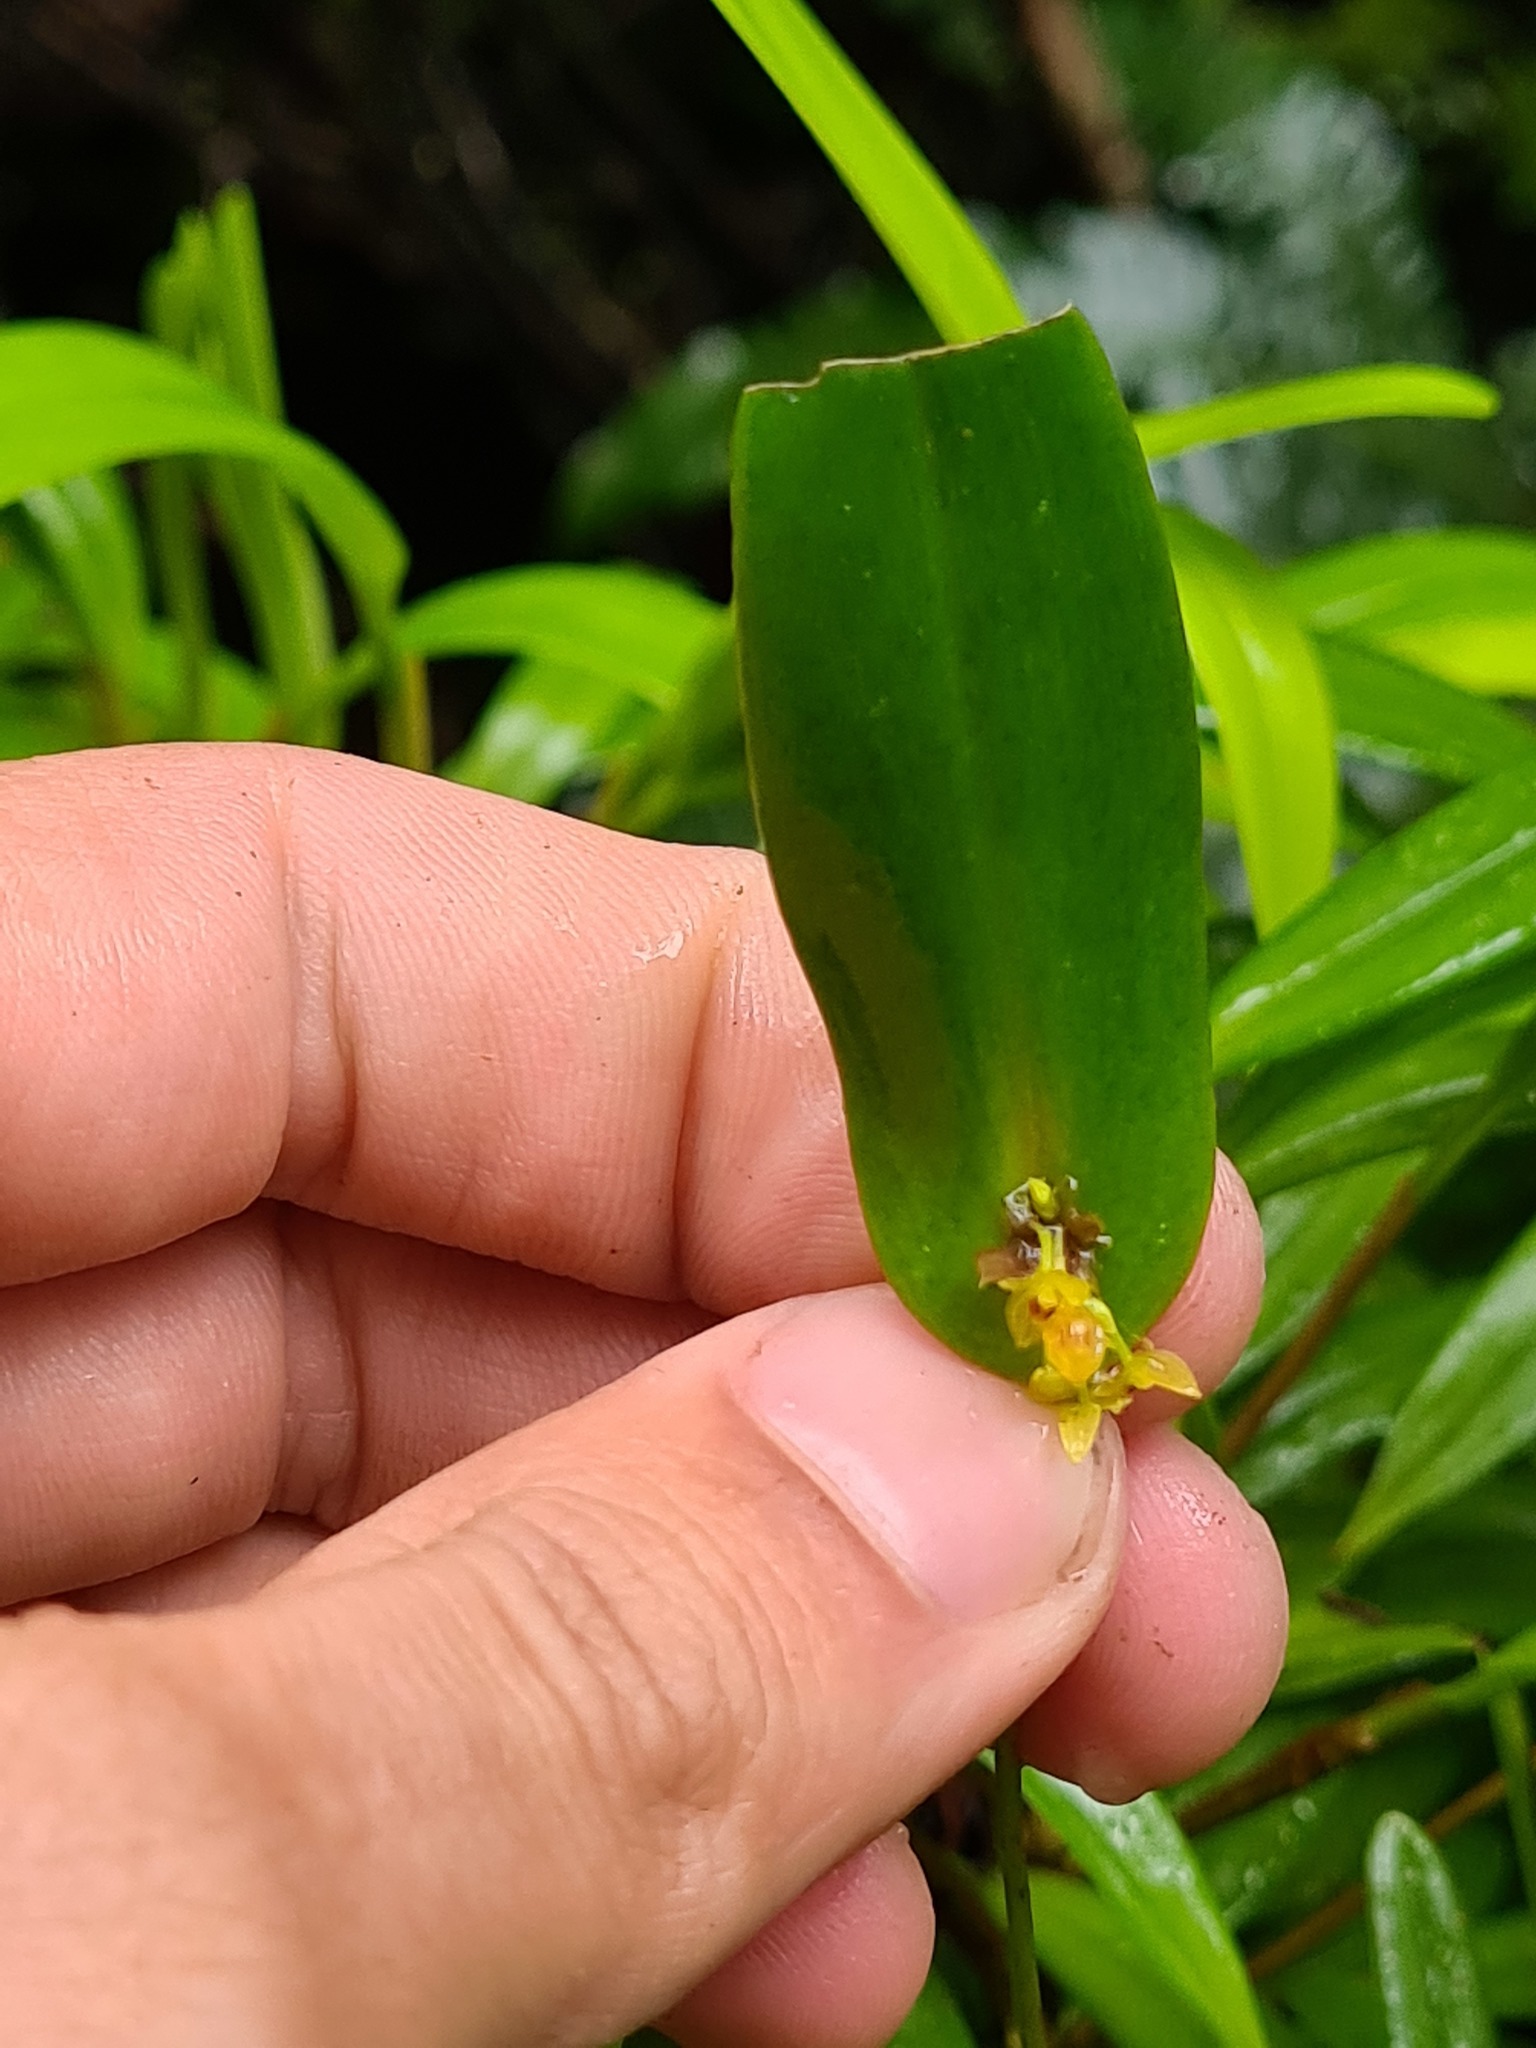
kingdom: Plantae
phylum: Tracheophyta
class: Liliopsida
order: Asparagales
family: Orchidaceae
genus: Pleurothallis
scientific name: Pleurothallis dibolia
